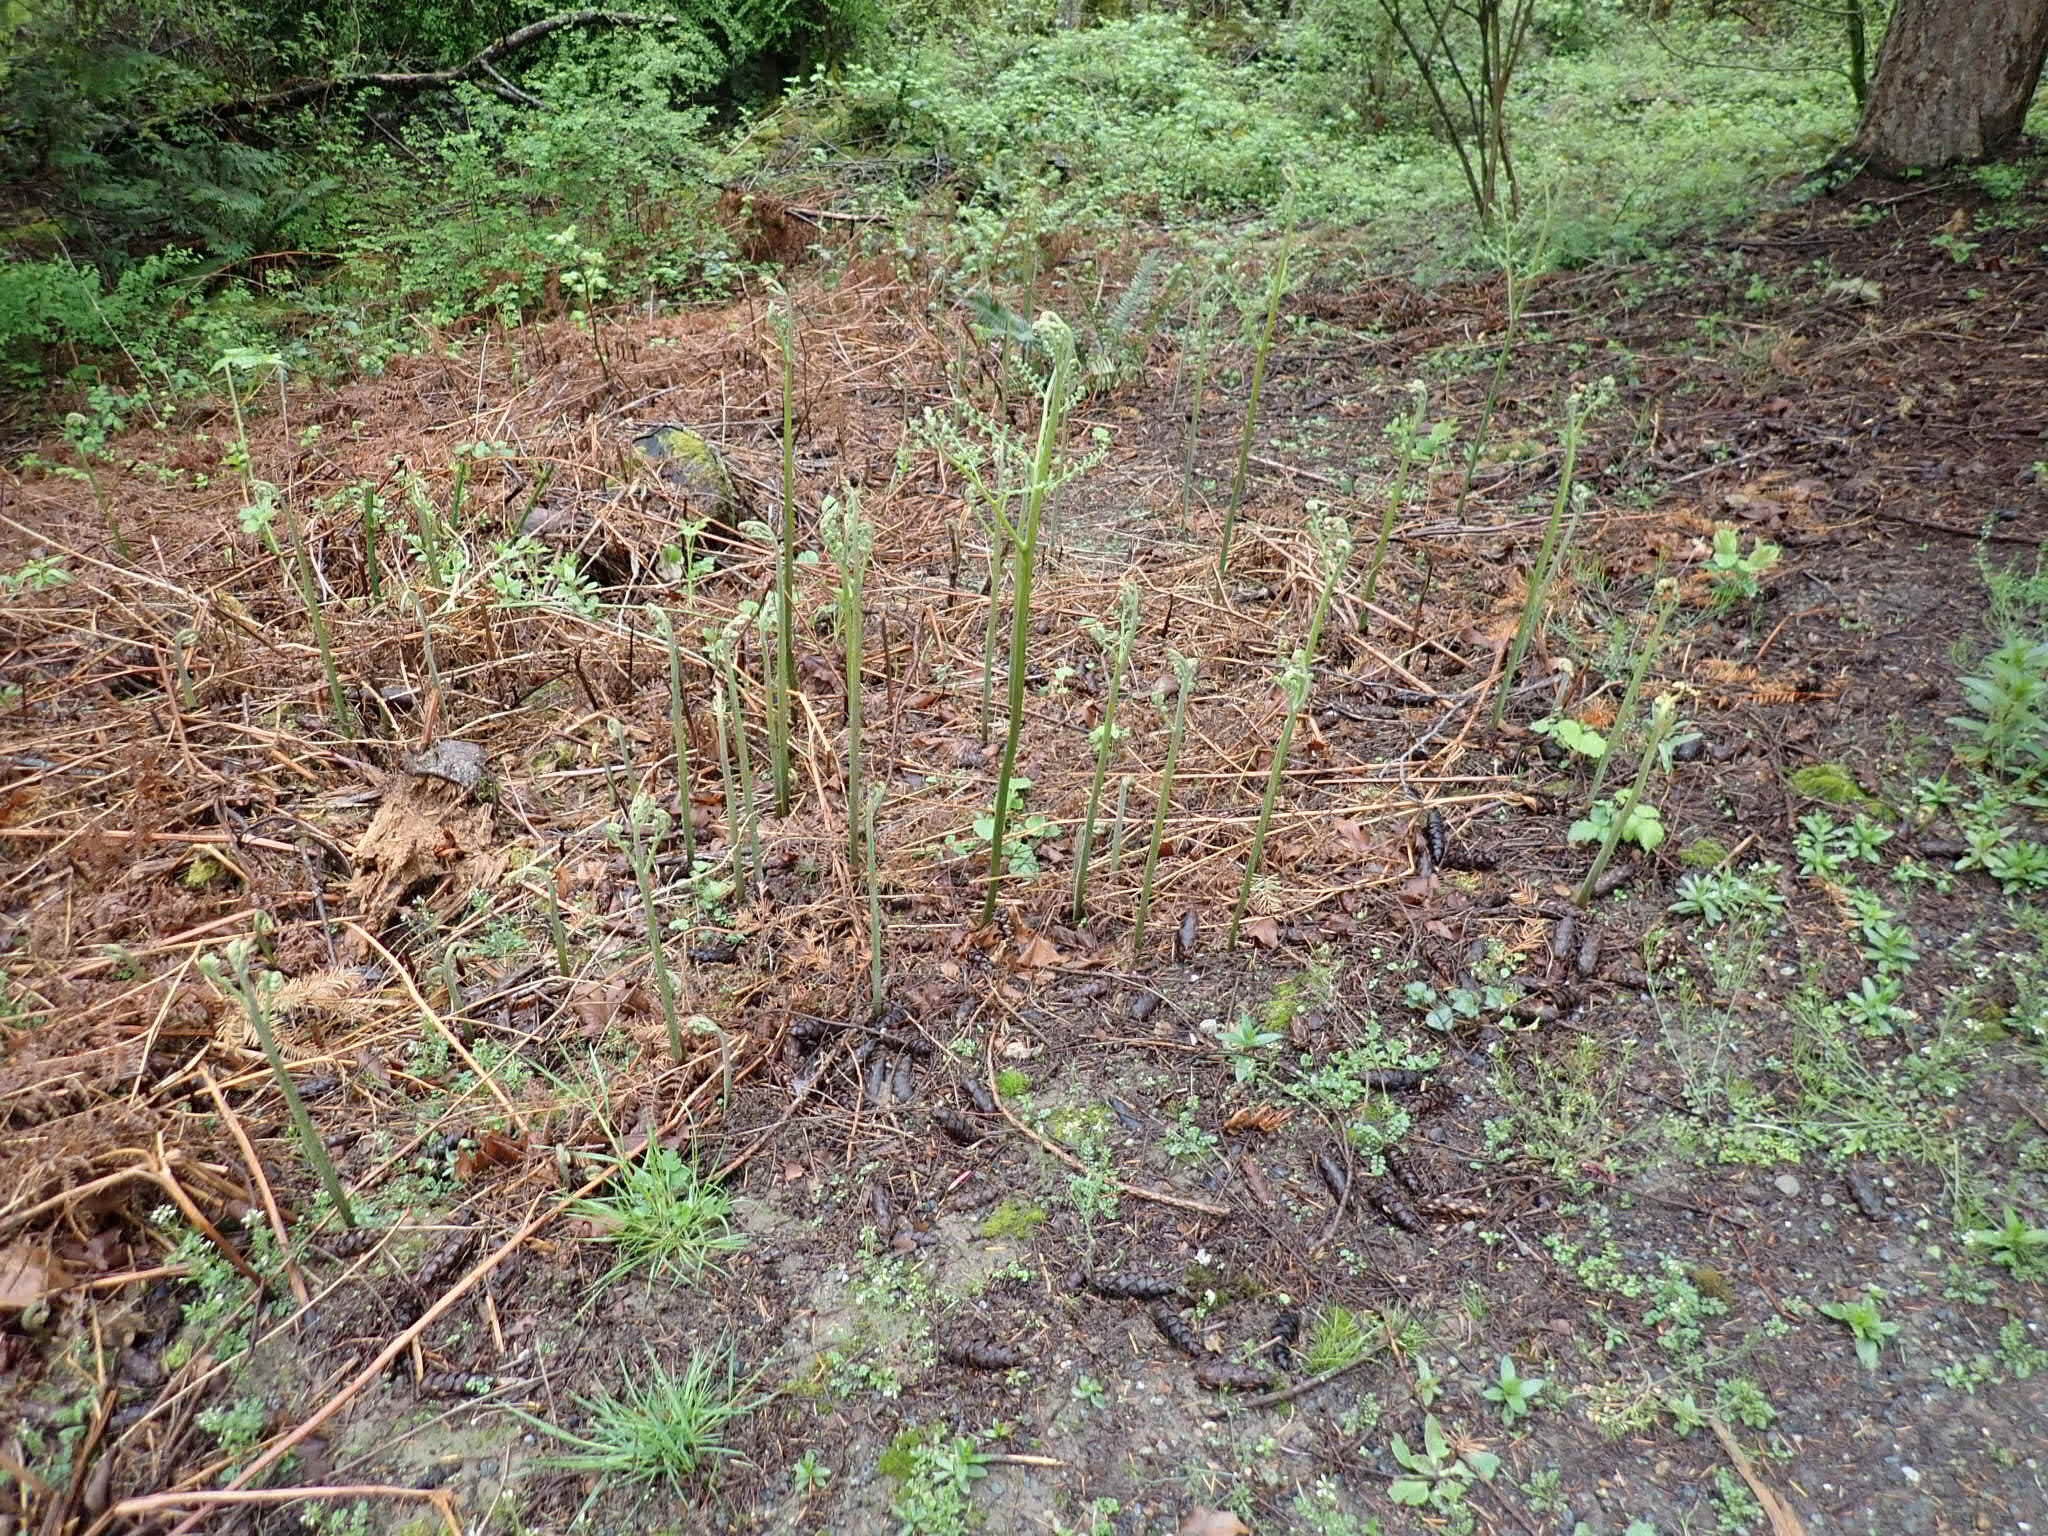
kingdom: Plantae
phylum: Tracheophyta
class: Polypodiopsida
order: Polypodiales
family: Dennstaedtiaceae
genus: Pteridium
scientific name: Pteridium aquilinum
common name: Bracken
